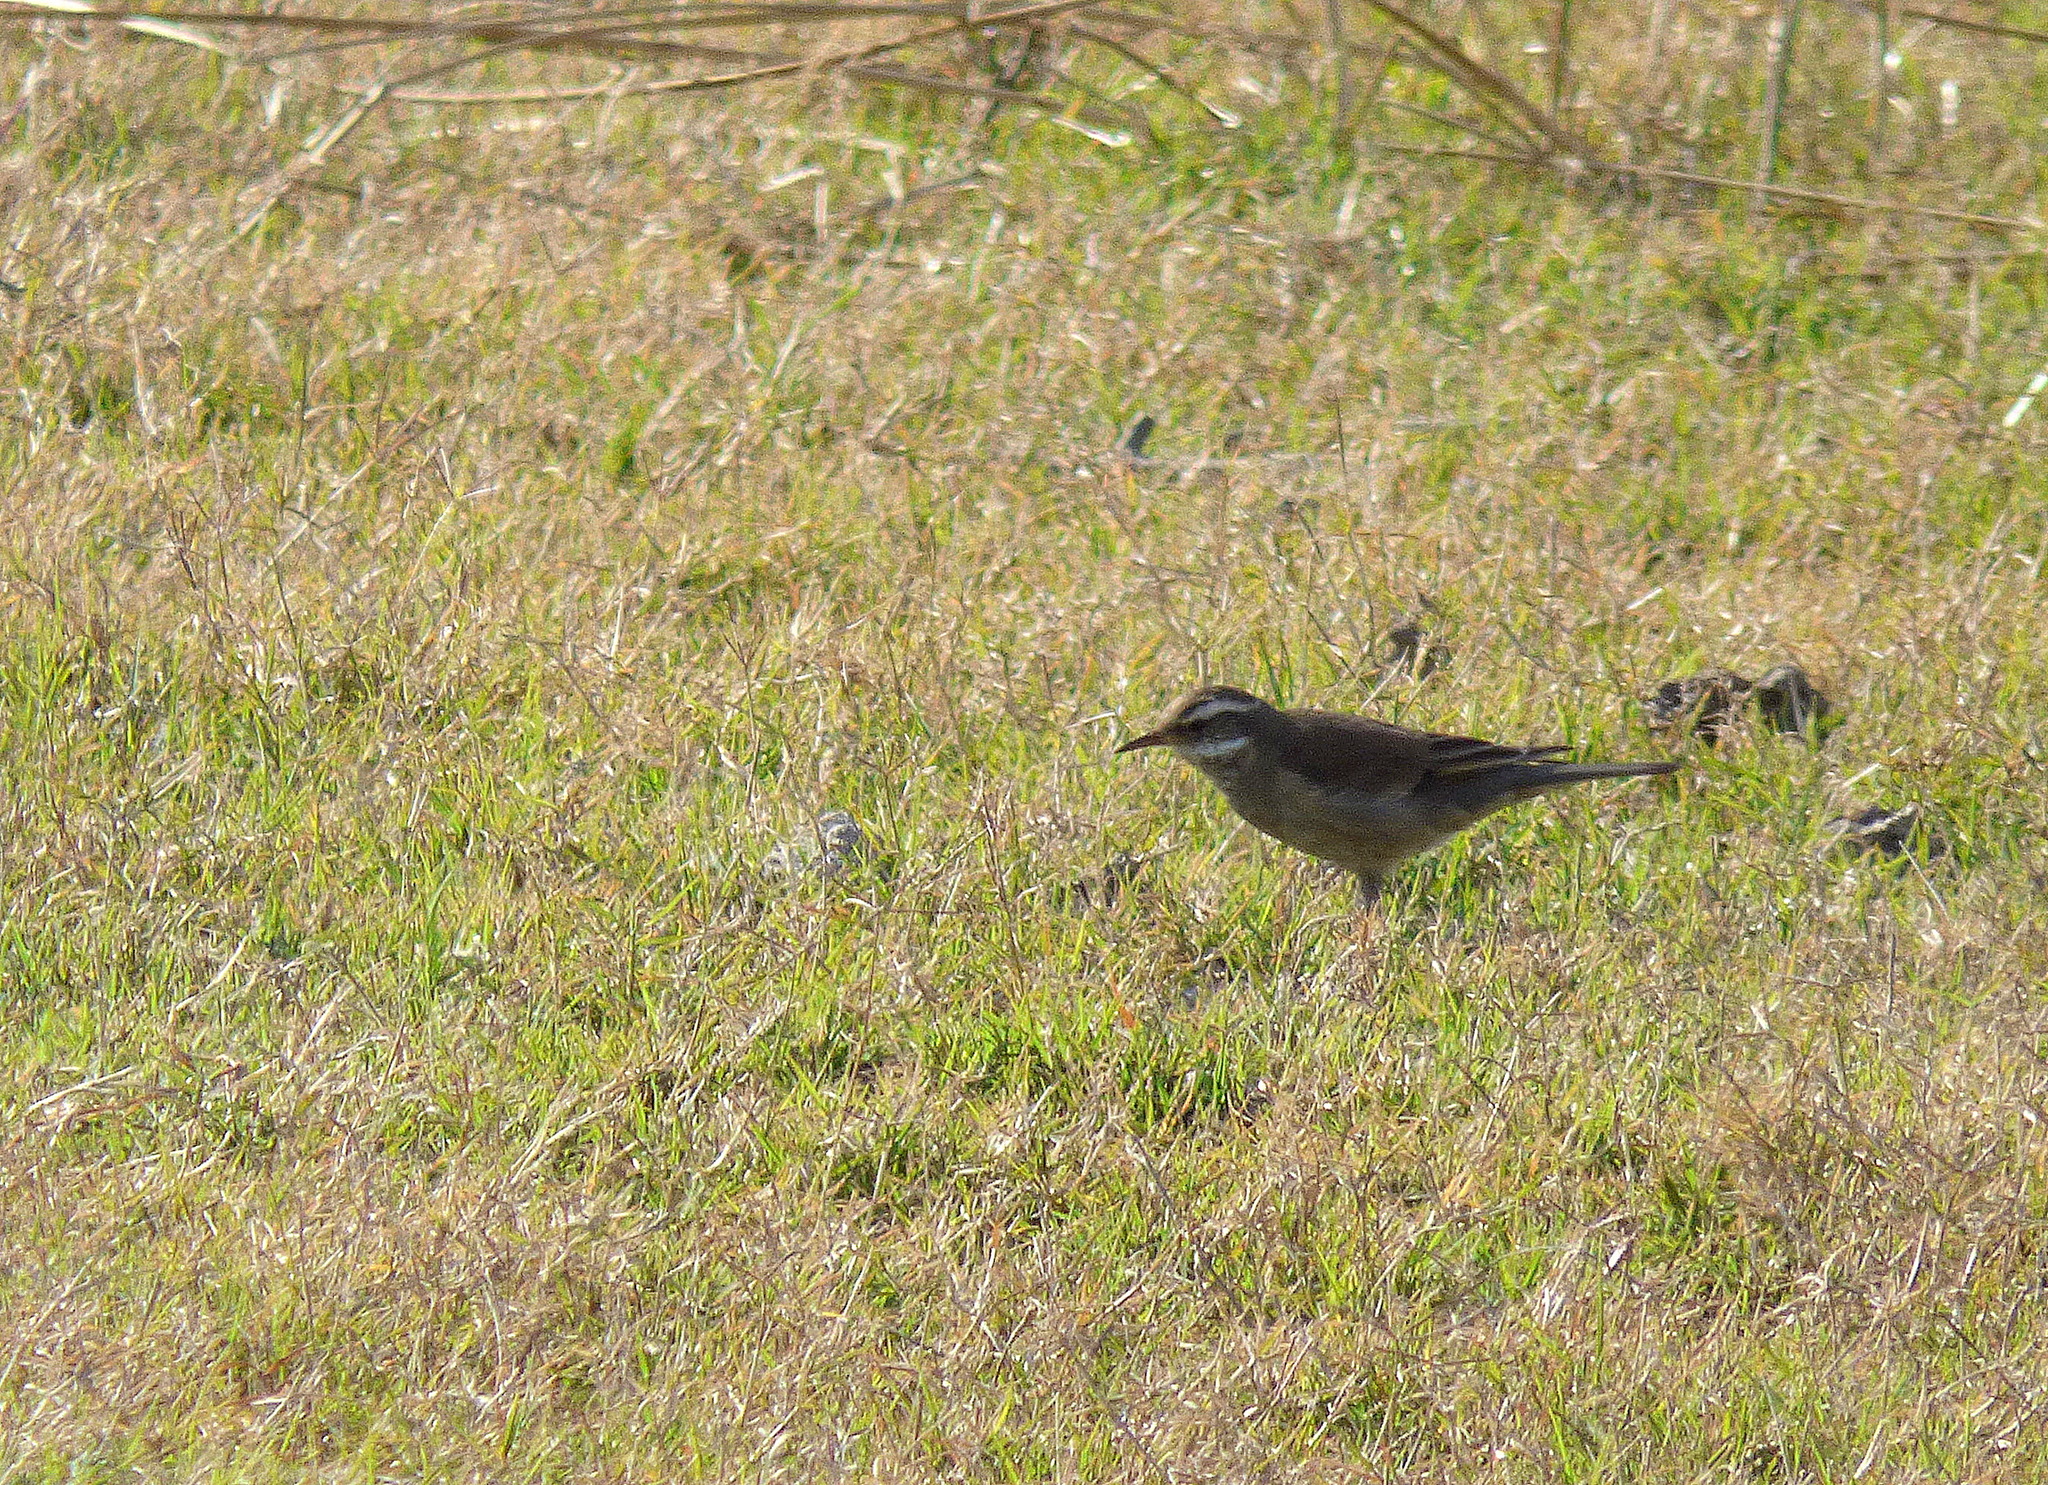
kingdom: Animalia
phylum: Chordata
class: Aves
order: Passeriformes
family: Furnariidae
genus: Cinclodes
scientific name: Cinclodes fuscus
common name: Buff-winged cinclodes
